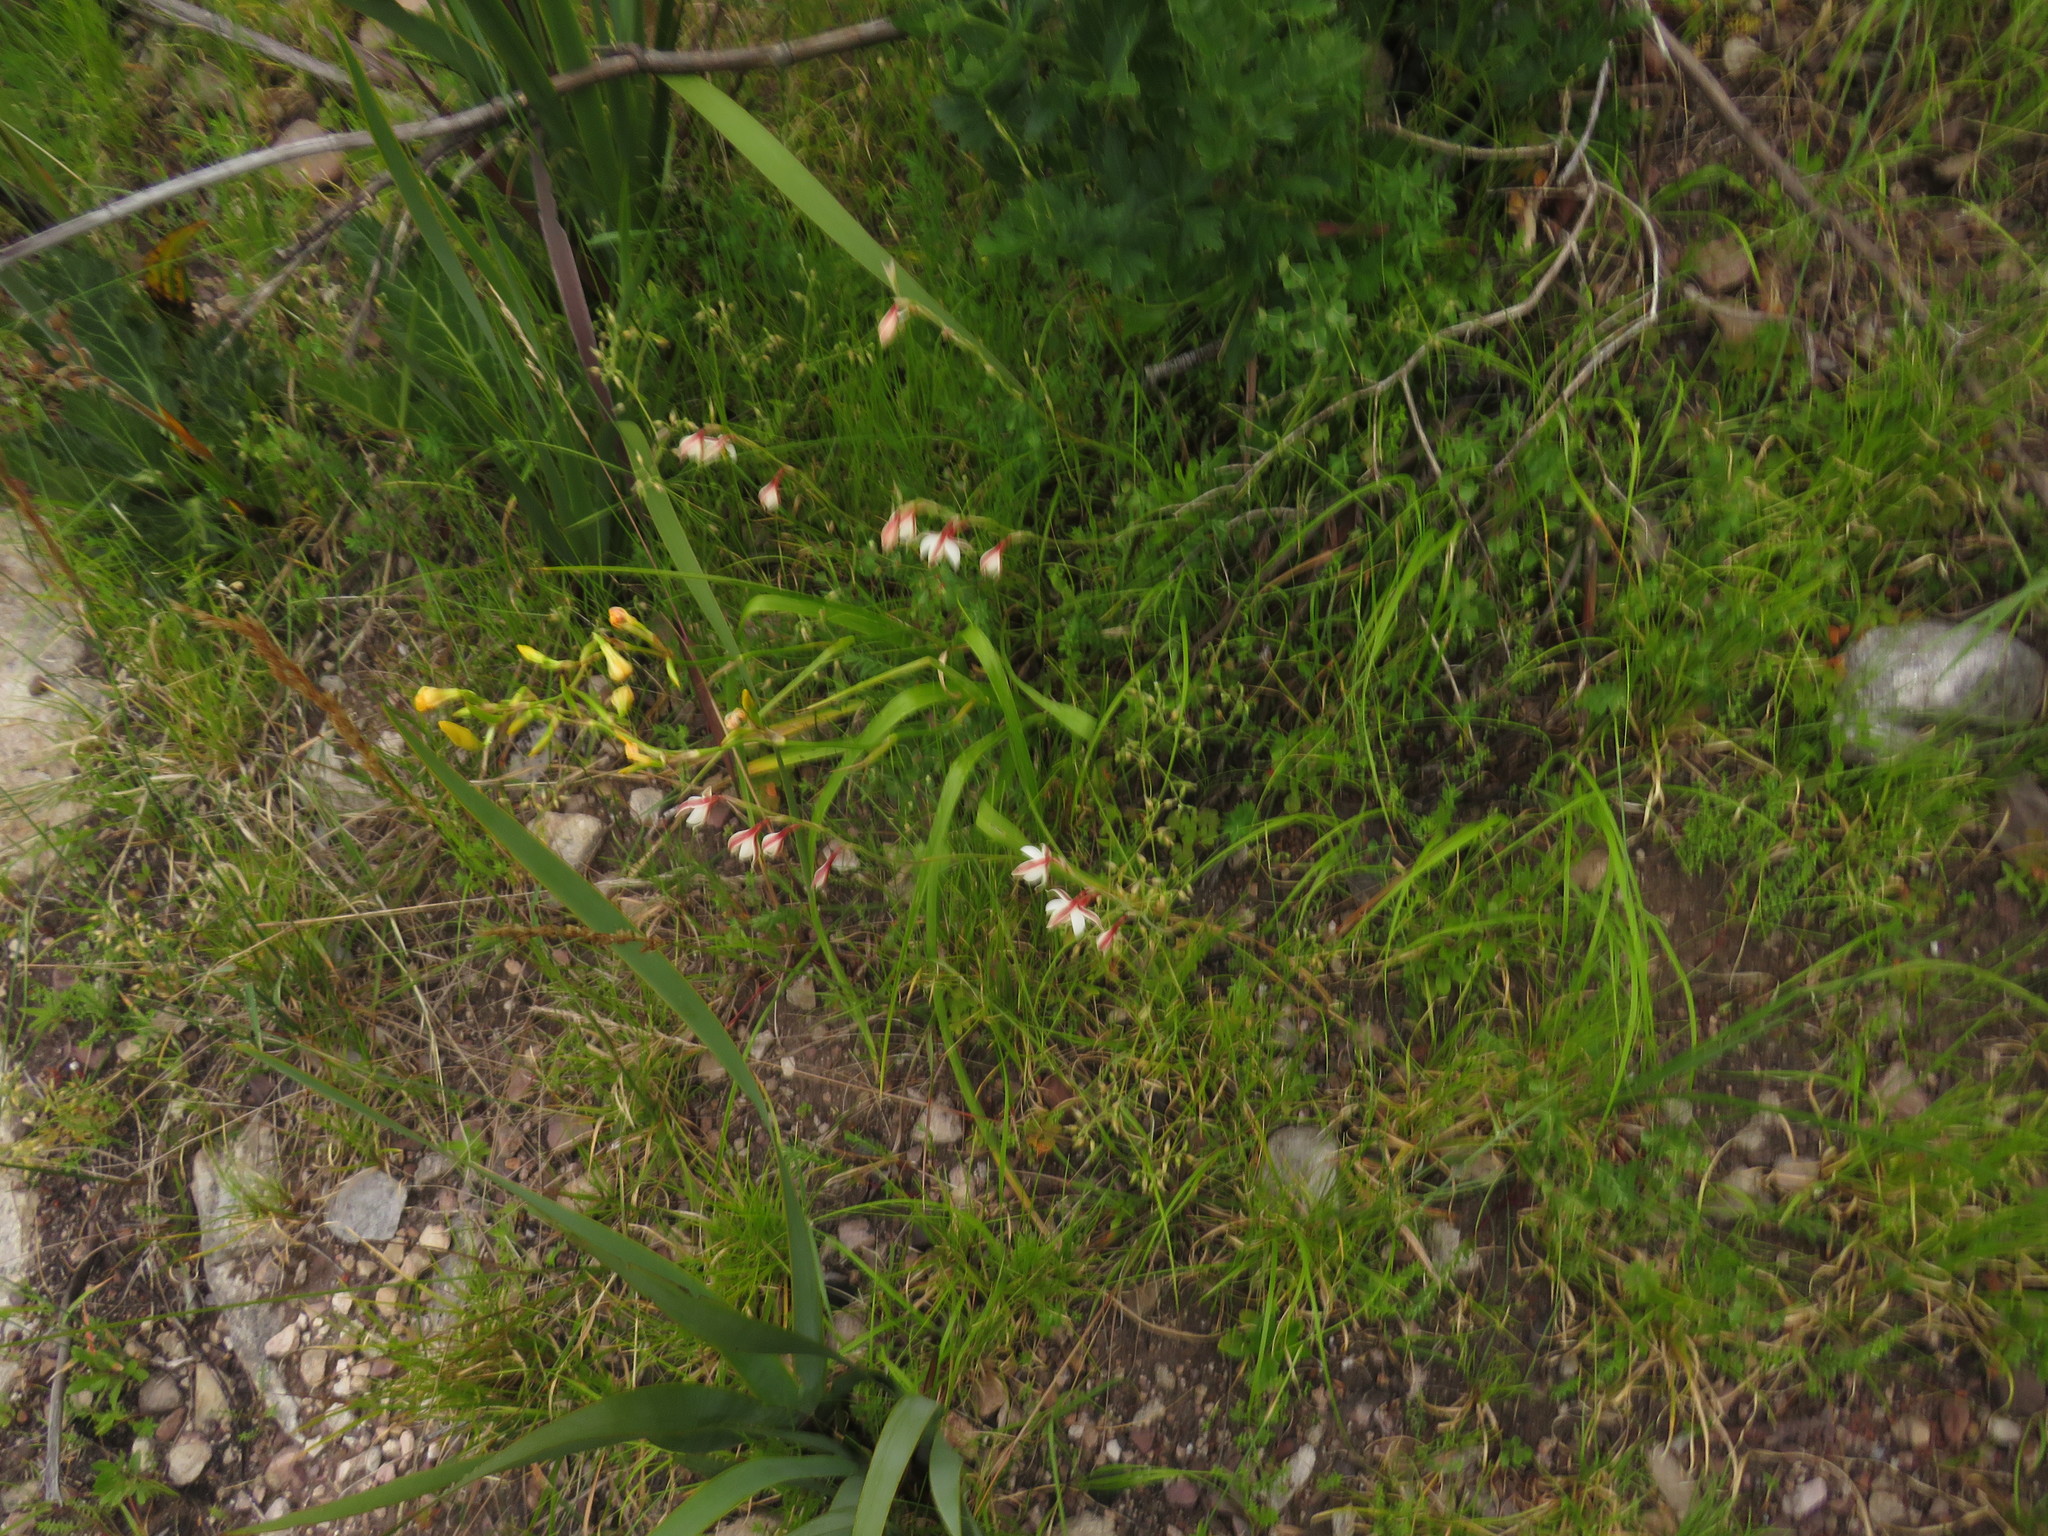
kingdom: Plantae
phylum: Tracheophyta
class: Liliopsida
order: Asparagales
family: Iridaceae
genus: Hesperantha
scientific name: Hesperantha falcata
